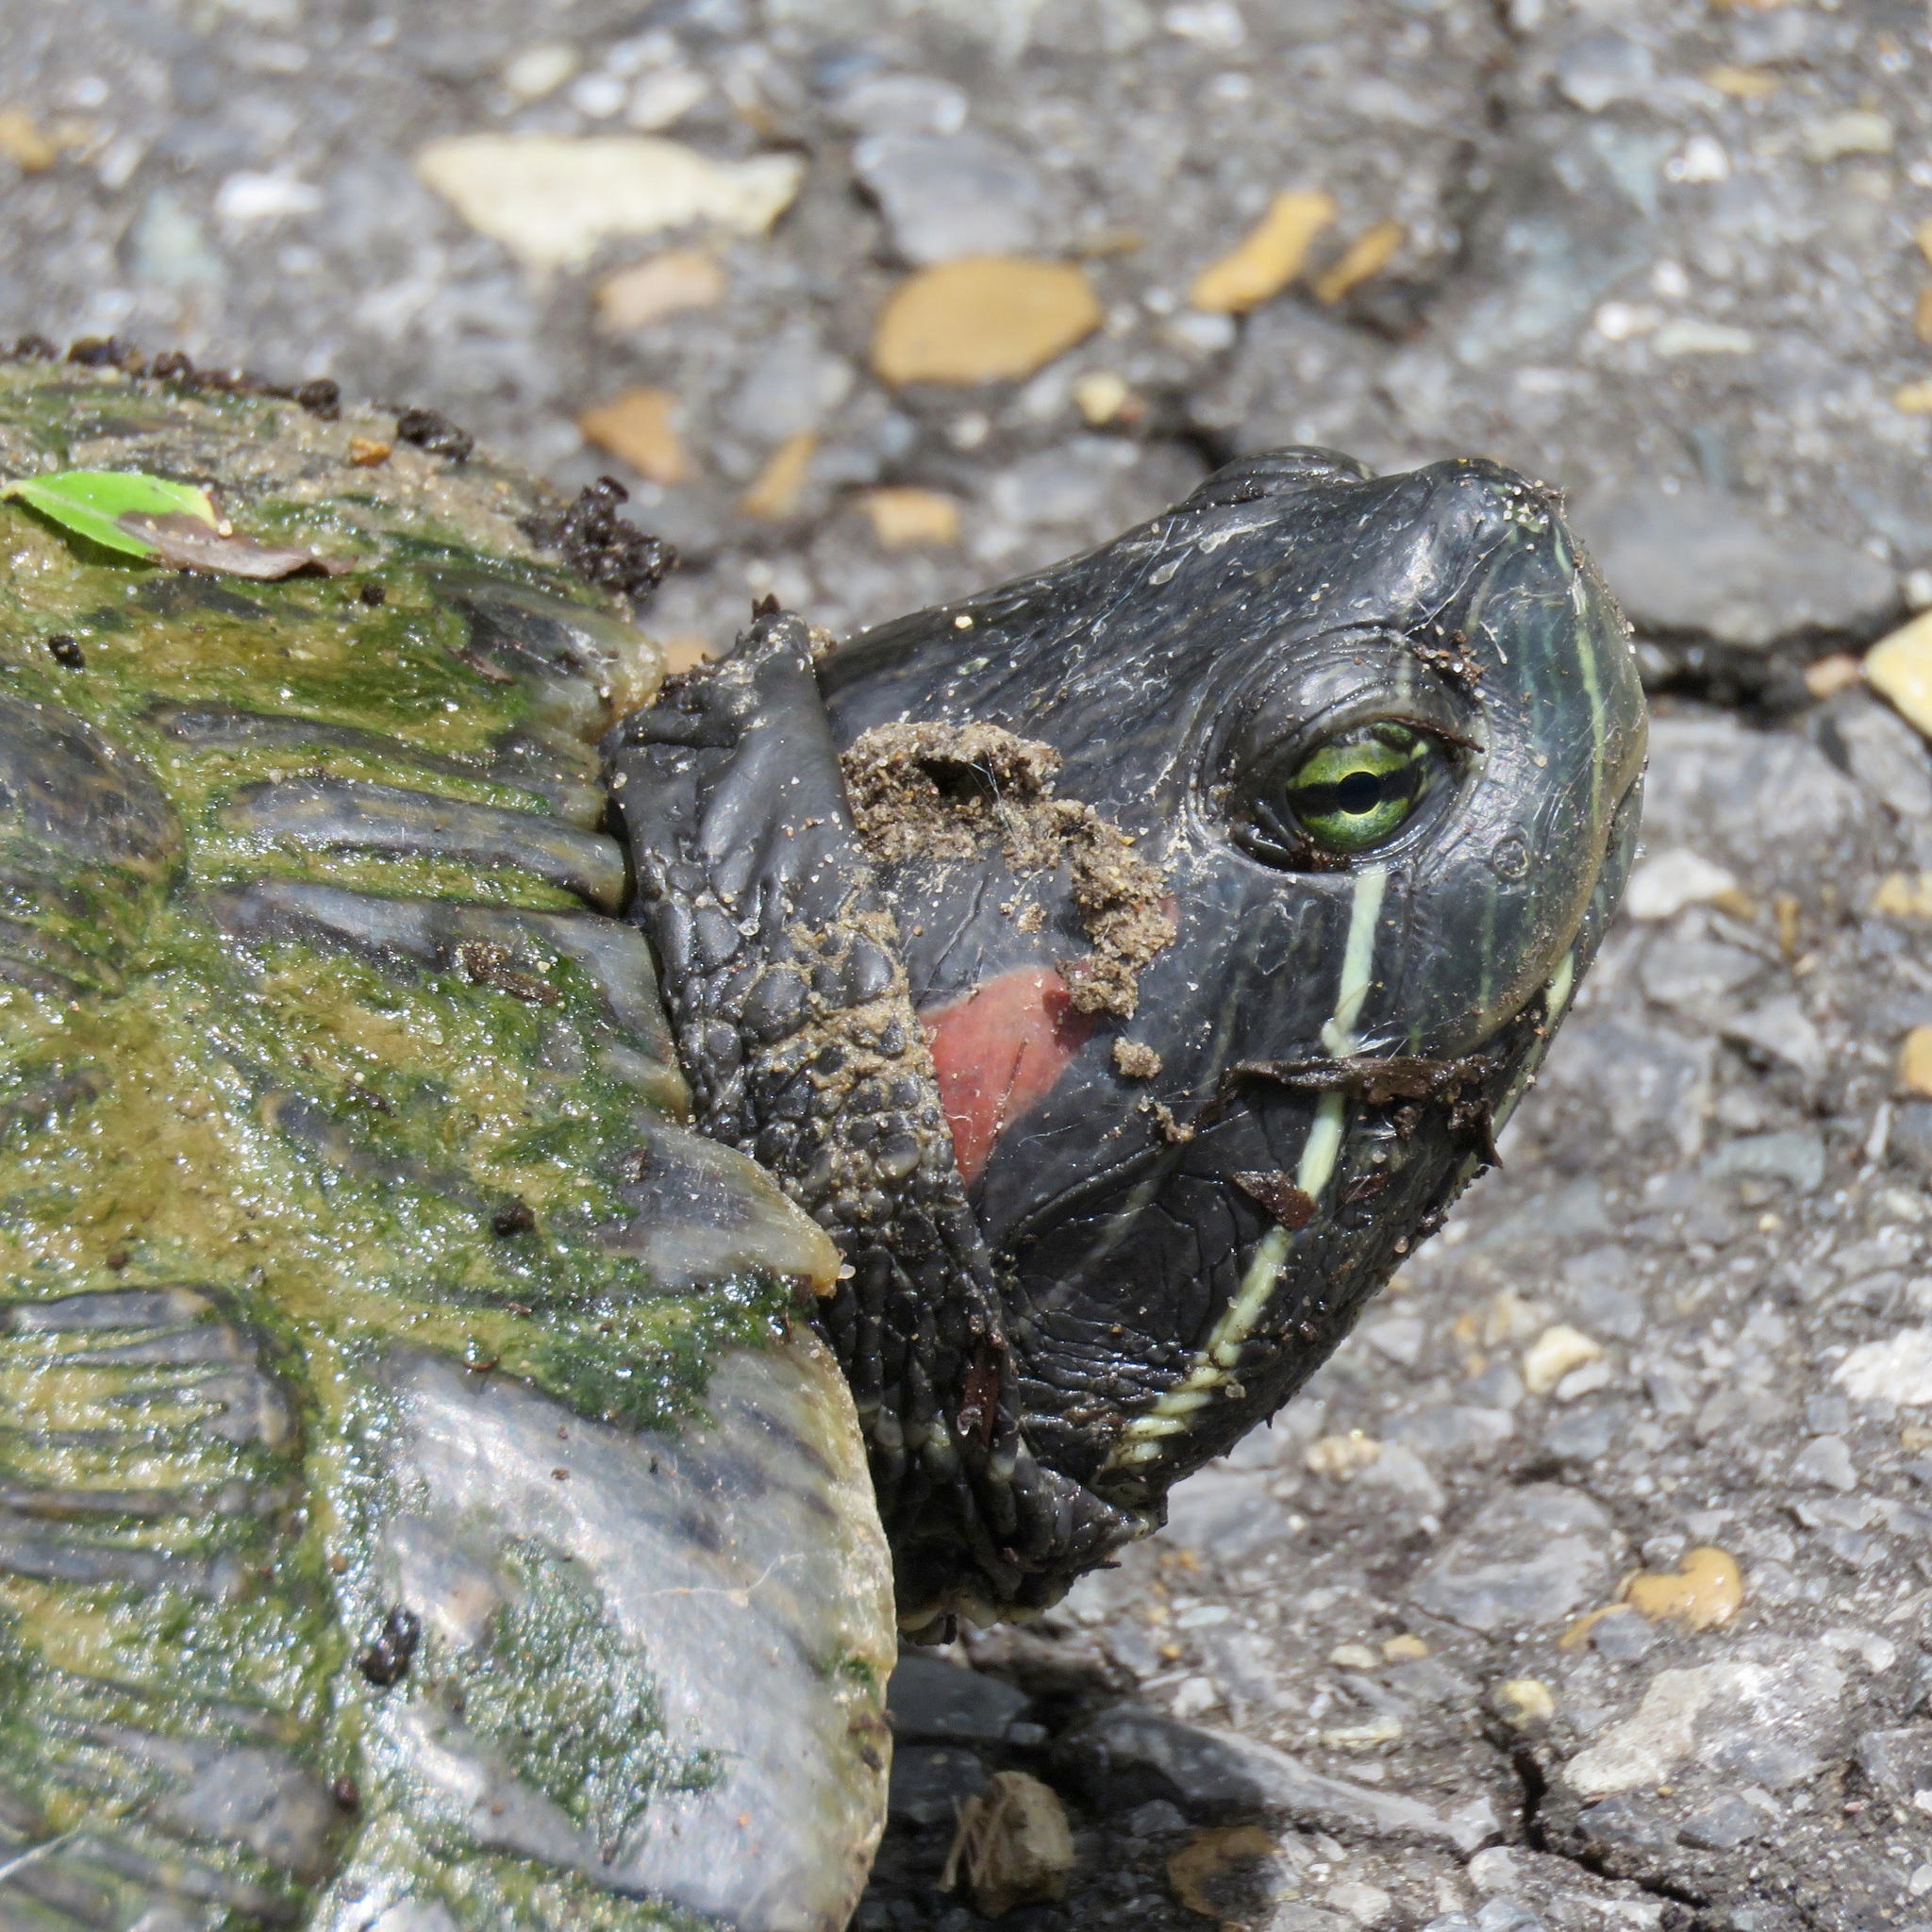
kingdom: Animalia
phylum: Chordata
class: Testudines
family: Emydidae
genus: Trachemys
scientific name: Trachemys scripta
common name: Slider
